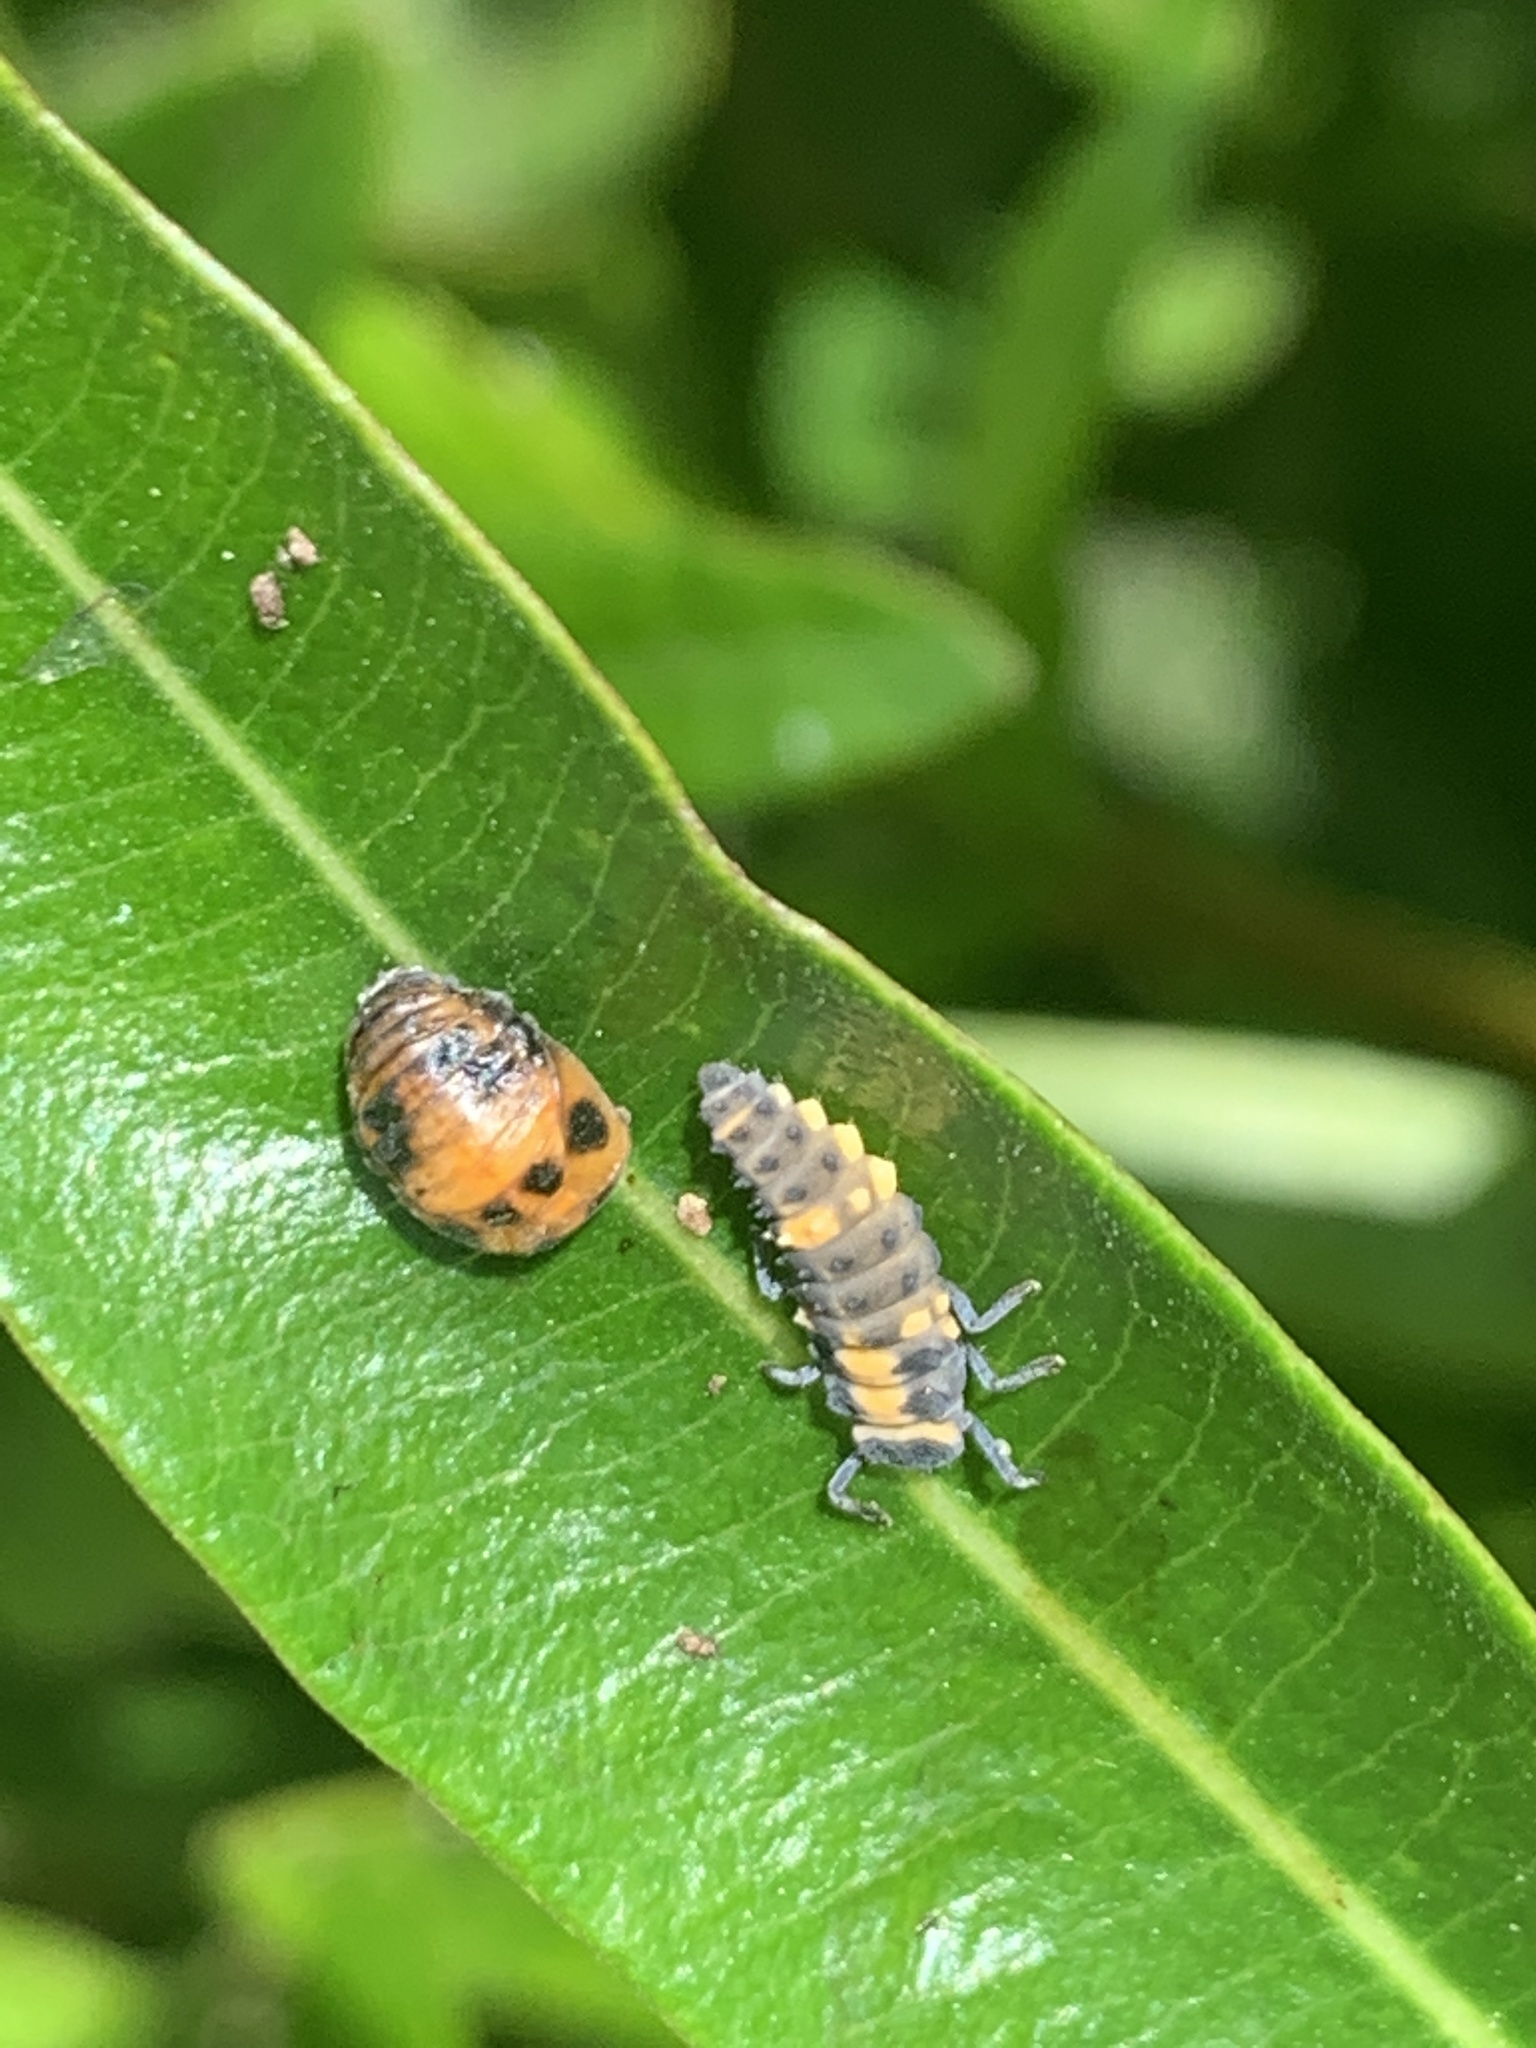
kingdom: Animalia
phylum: Arthropoda
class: Insecta
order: Coleoptera
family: Coccinellidae
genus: Coelophora
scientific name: Coelophora inaequalis
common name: Common australian lady beetle
